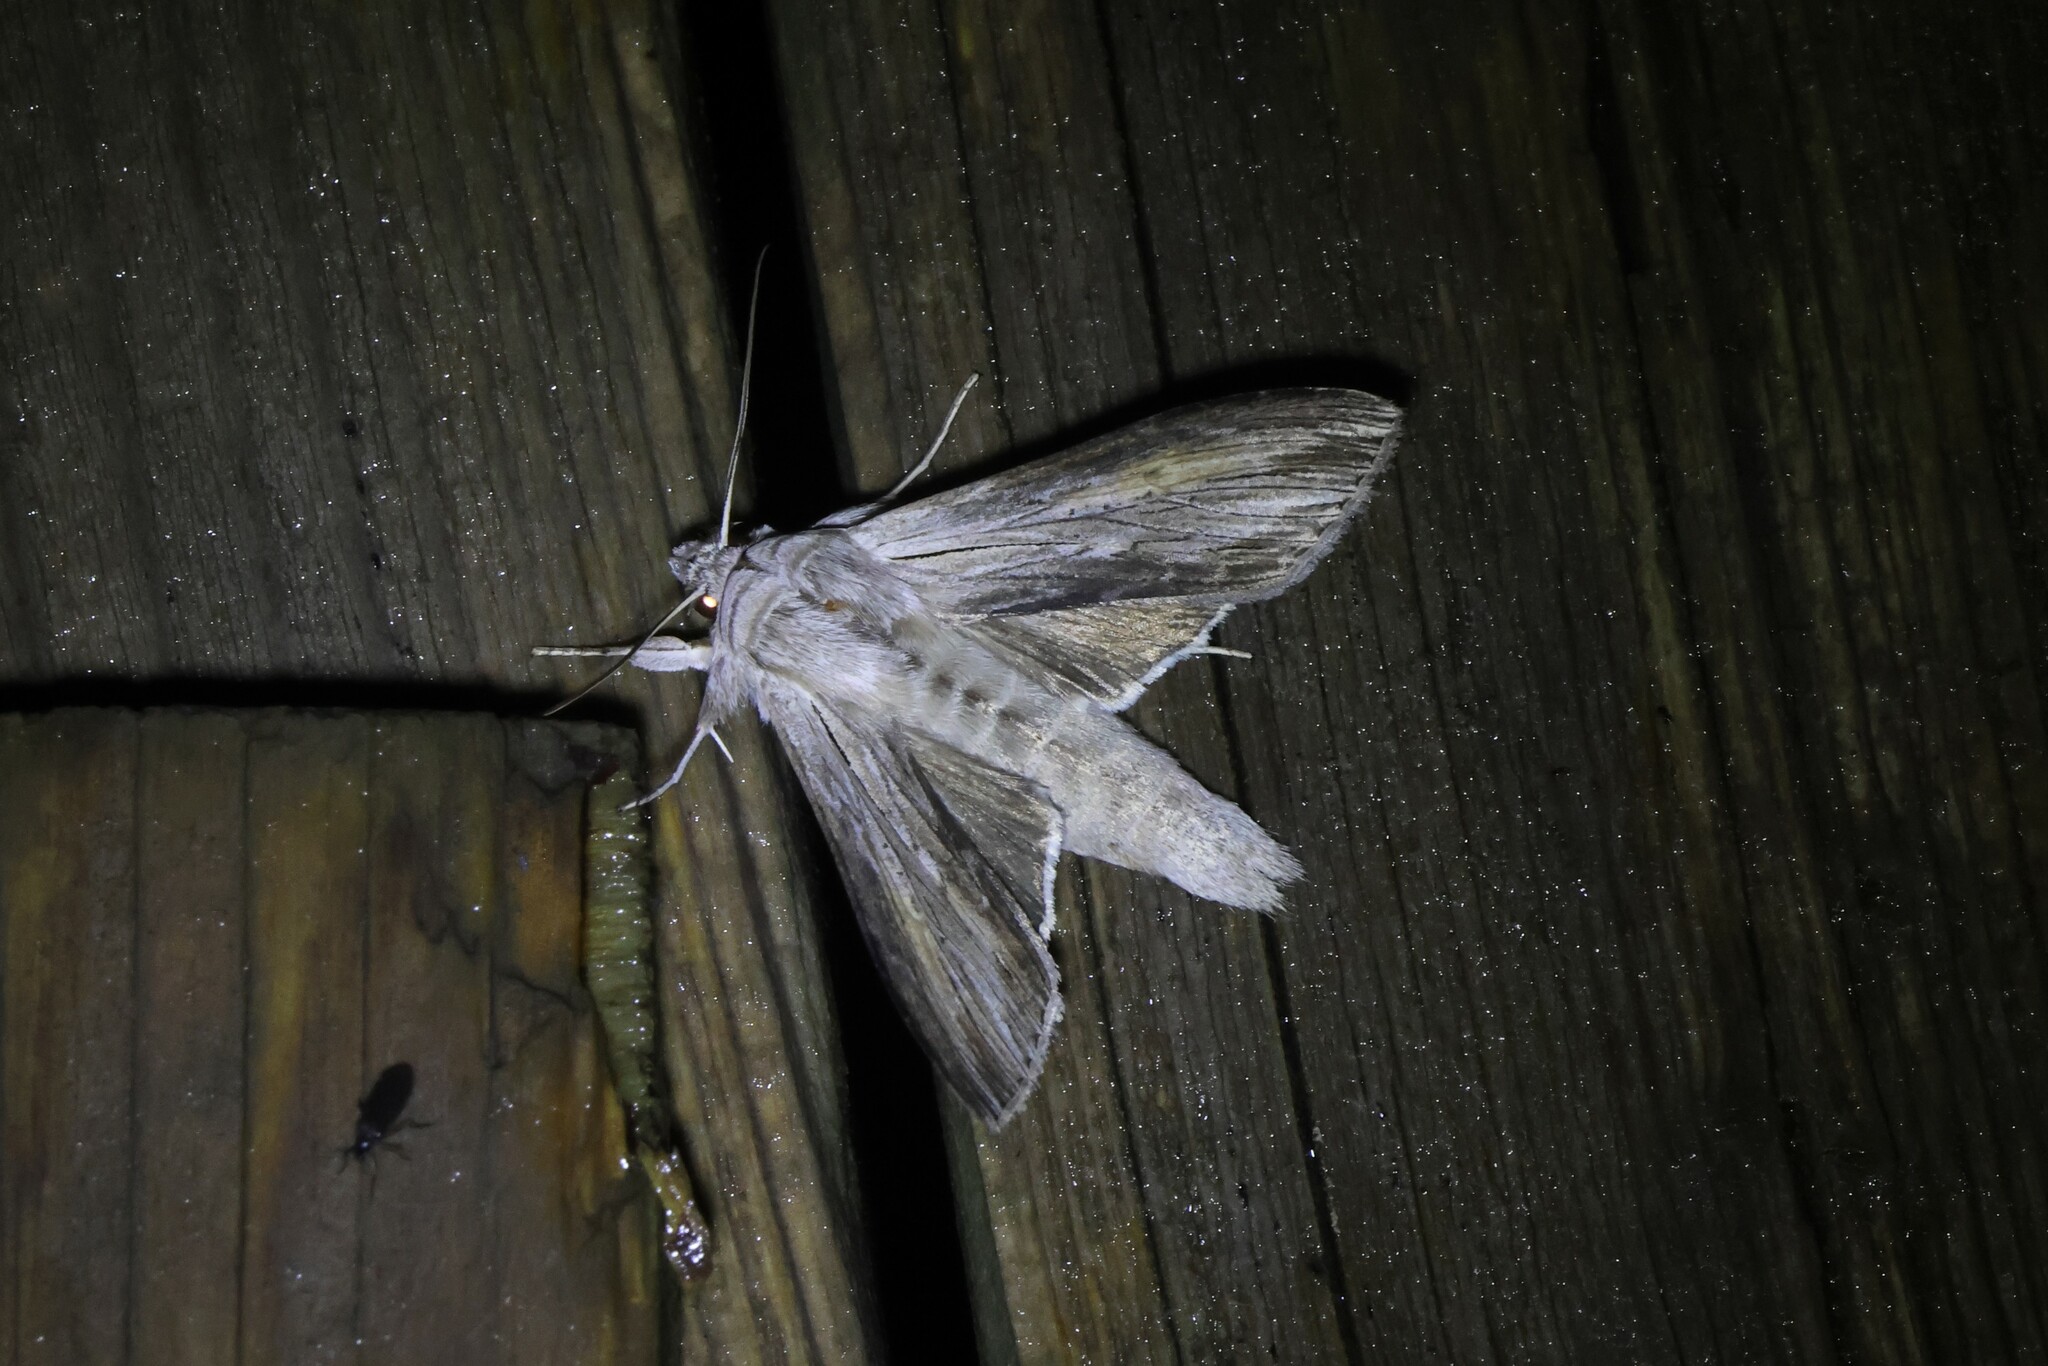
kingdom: Animalia
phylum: Arthropoda
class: Insecta
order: Lepidoptera
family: Noctuidae
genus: Cucullia
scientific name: Cucullia intermedia
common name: Goldenrod cutworm
